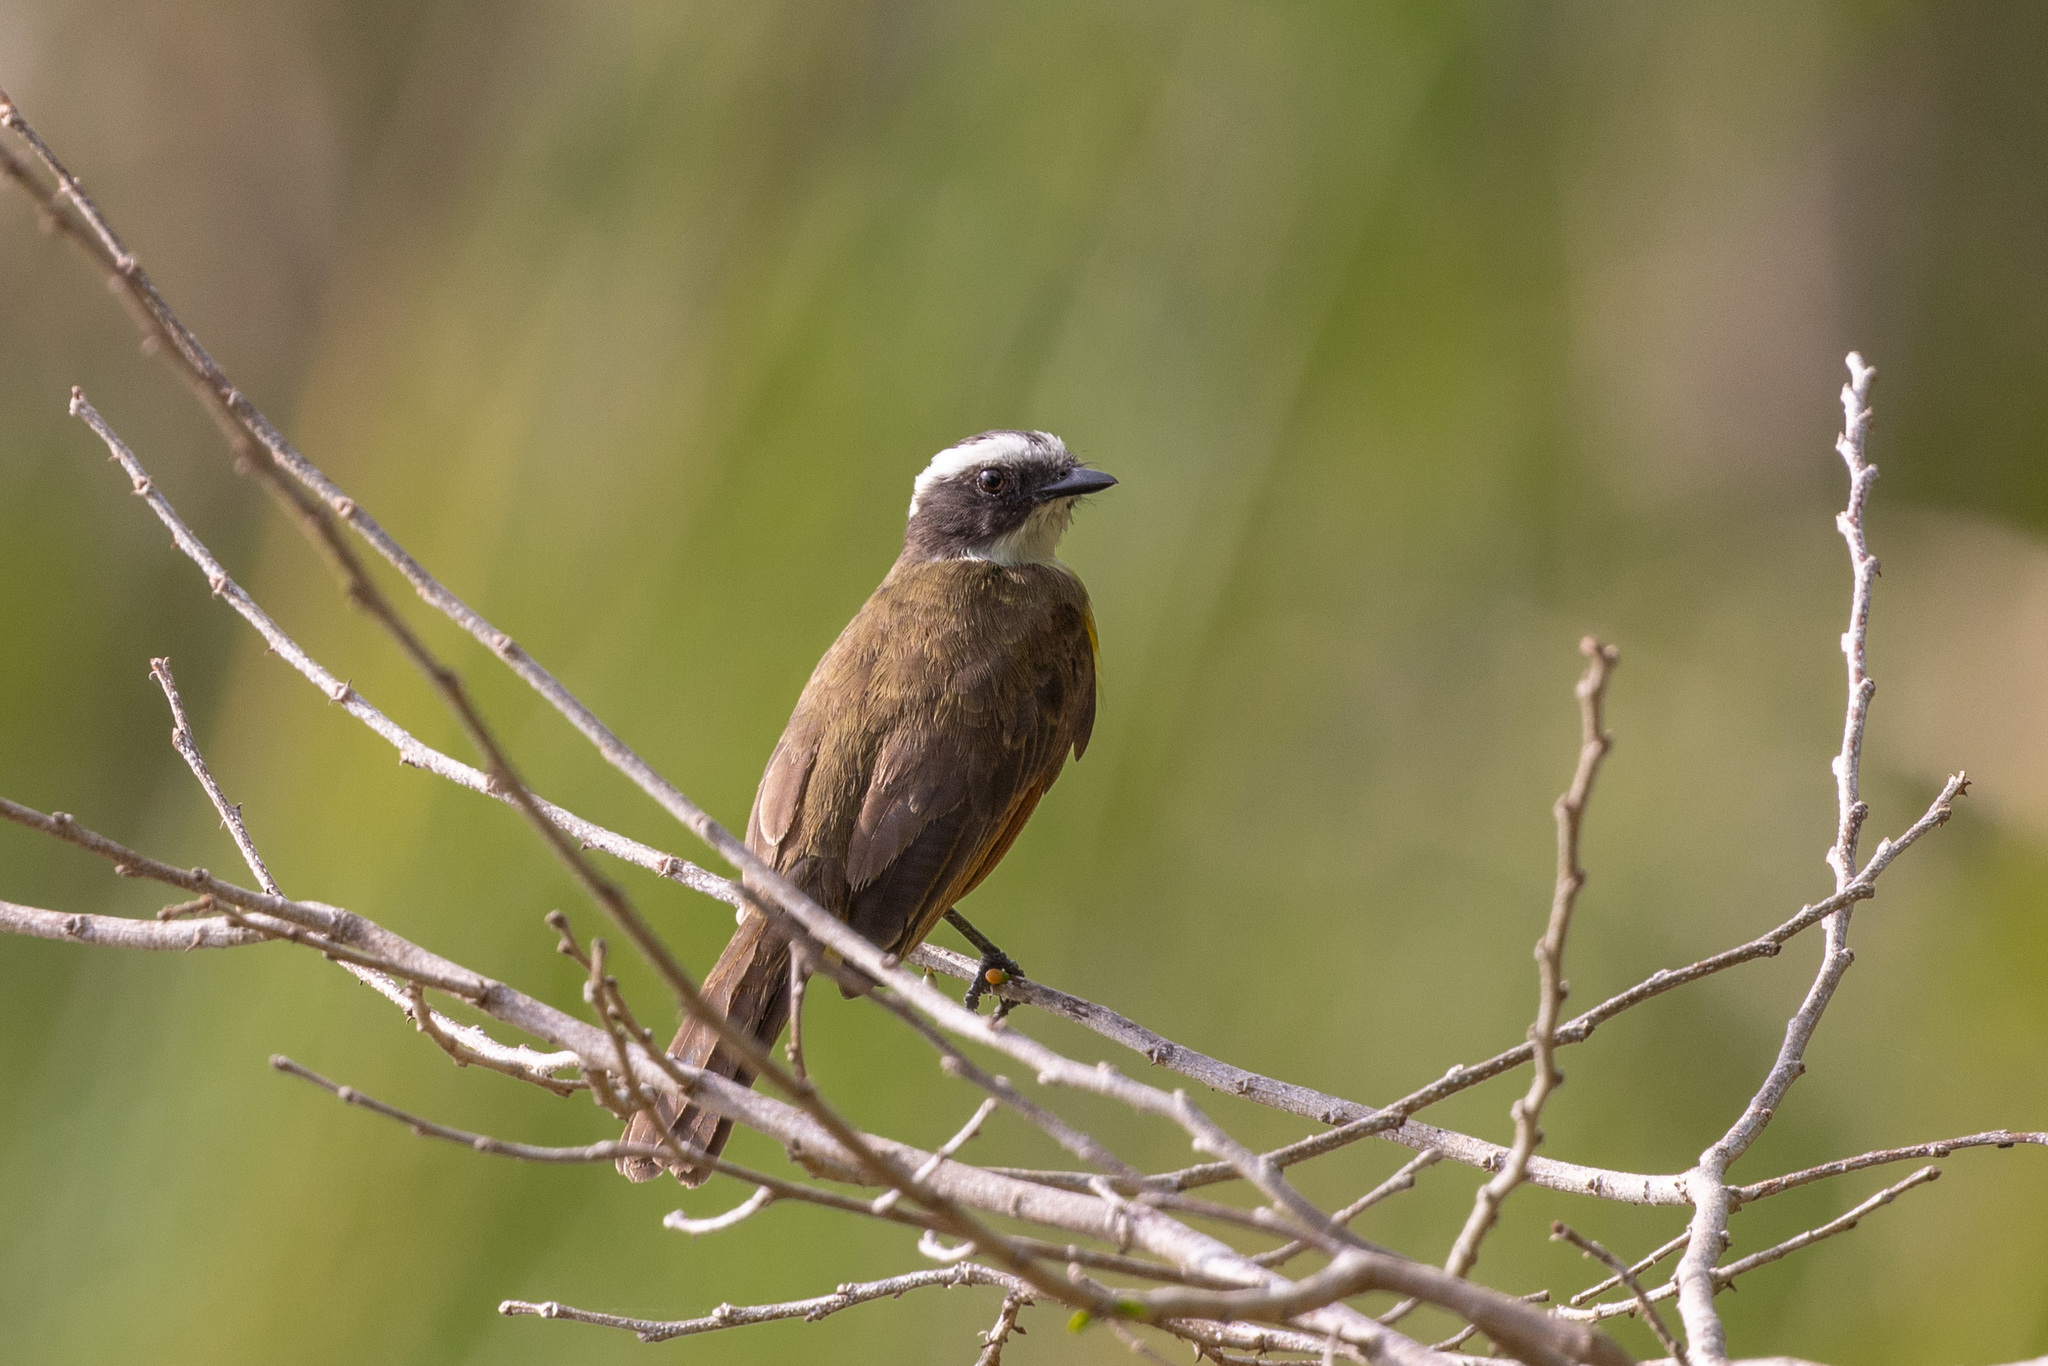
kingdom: Animalia
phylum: Chordata
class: Aves
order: Passeriformes
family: Tyrannidae
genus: Myiozetetes
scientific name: Myiozetetes cayanensis
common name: Rusty-margined flycatcher
